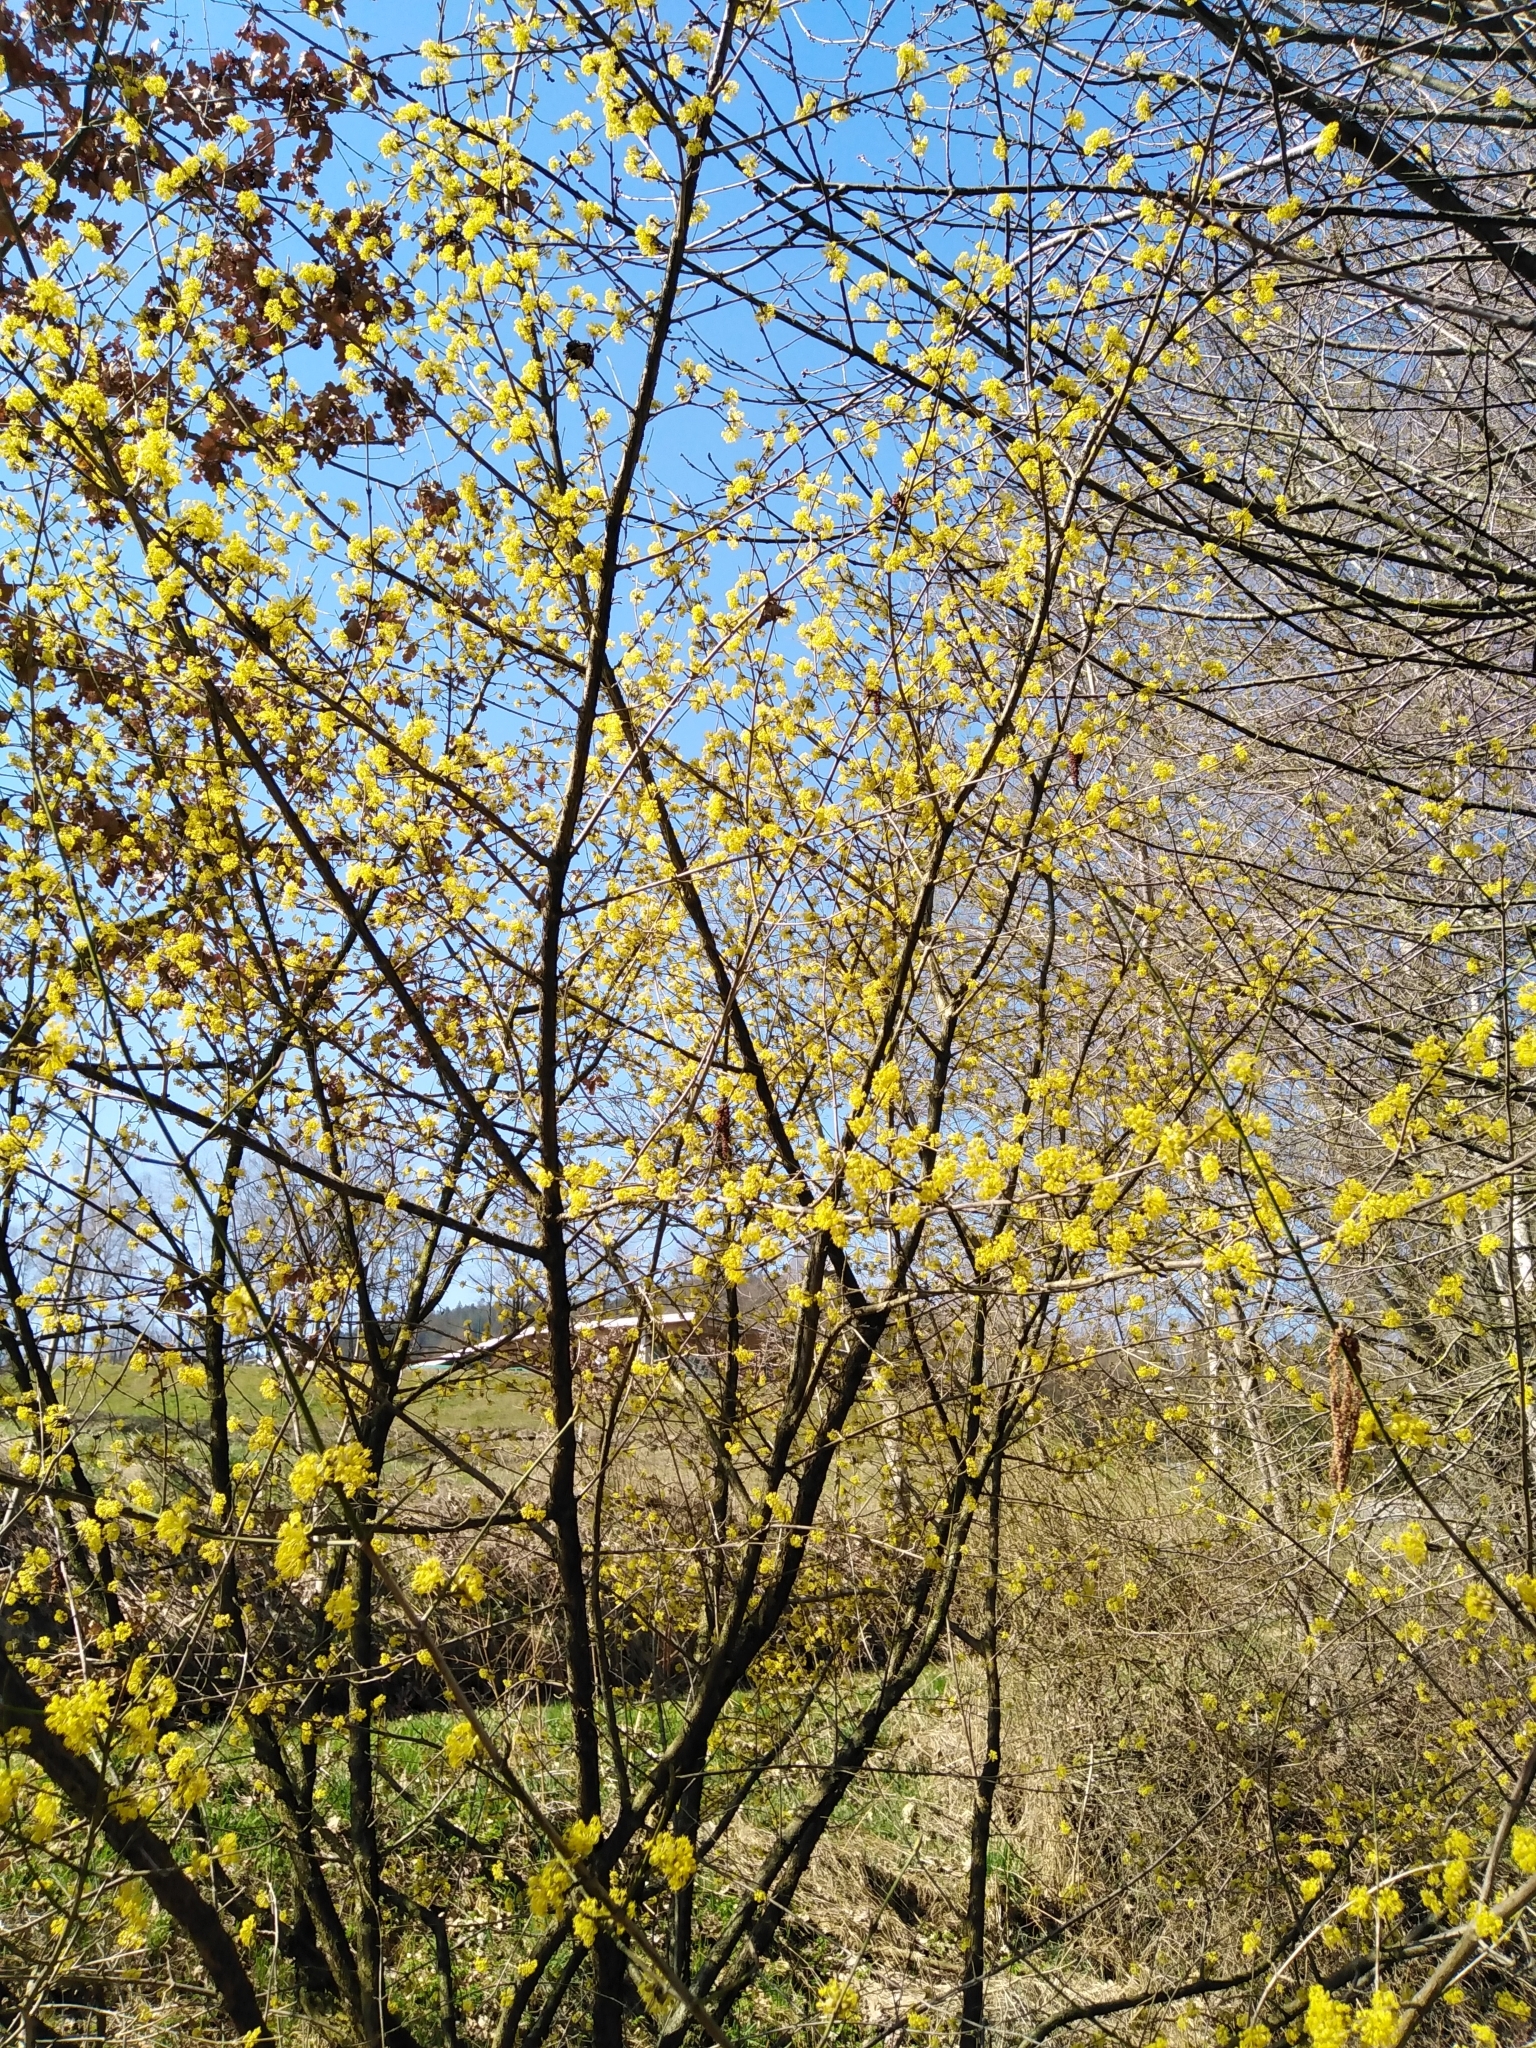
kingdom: Plantae
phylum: Tracheophyta
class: Magnoliopsida
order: Cornales
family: Cornaceae
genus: Cornus
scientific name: Cornus mas
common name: Cornelian-cherry
